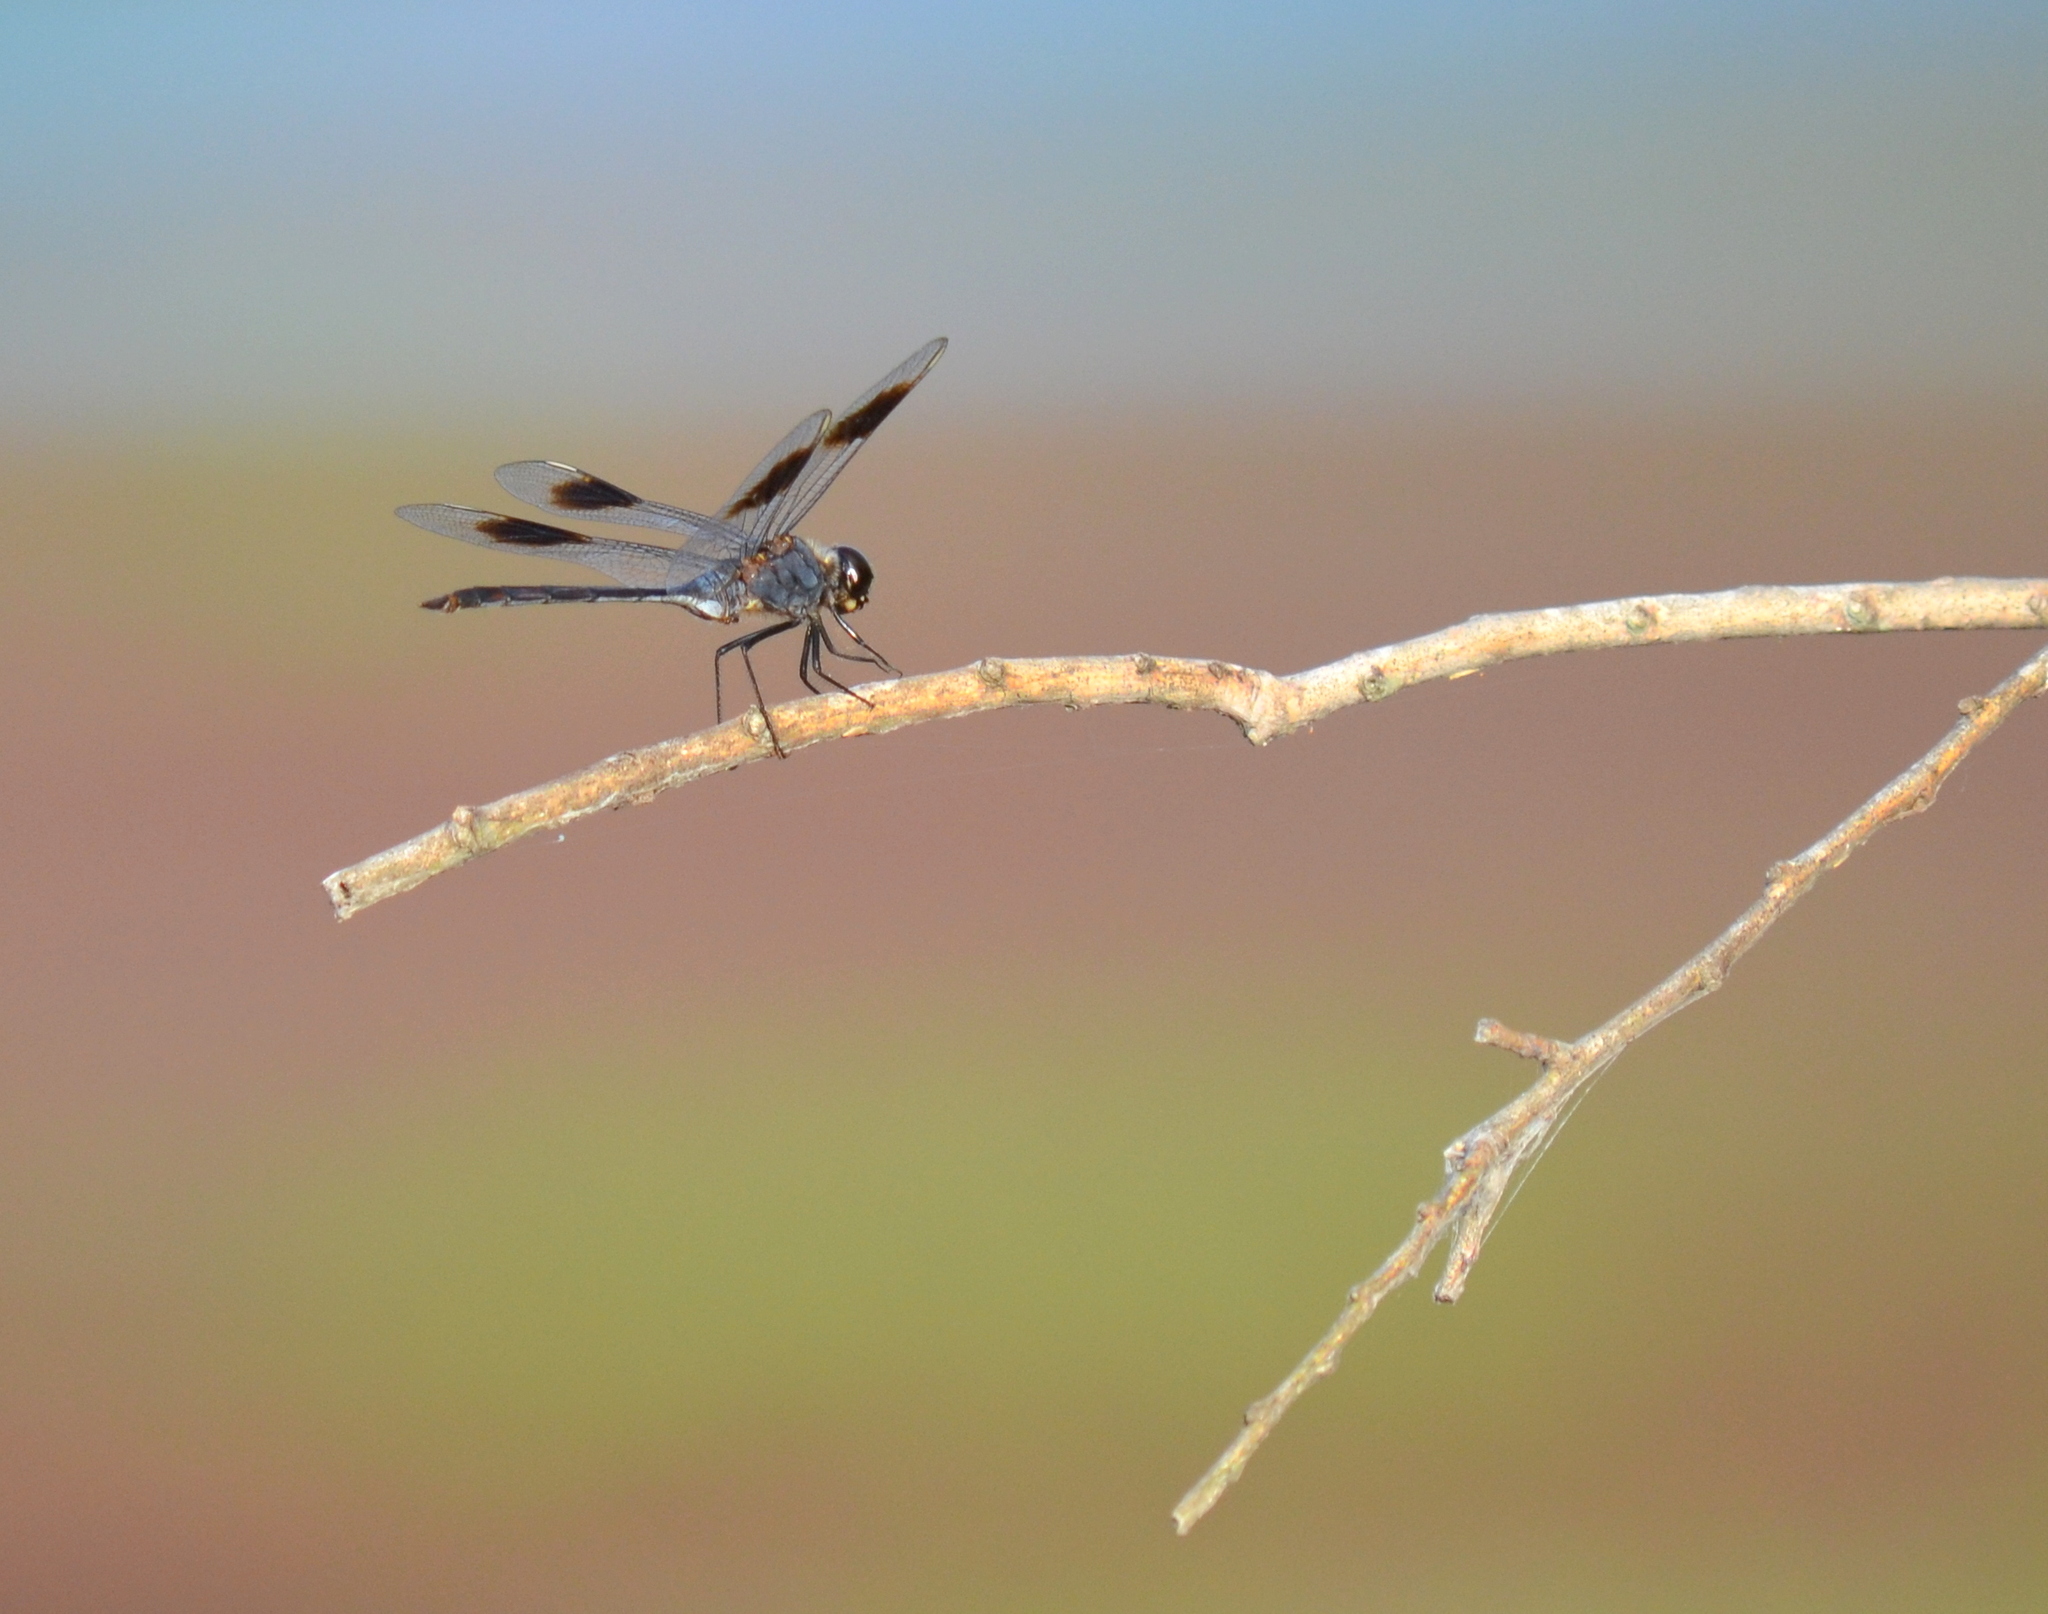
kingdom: Animalia
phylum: Arthropoda
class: Insecta
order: Odonata
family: Libellulidae
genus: Brachymesia
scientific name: Brachymesia gravida
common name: Four-spotted pennant
